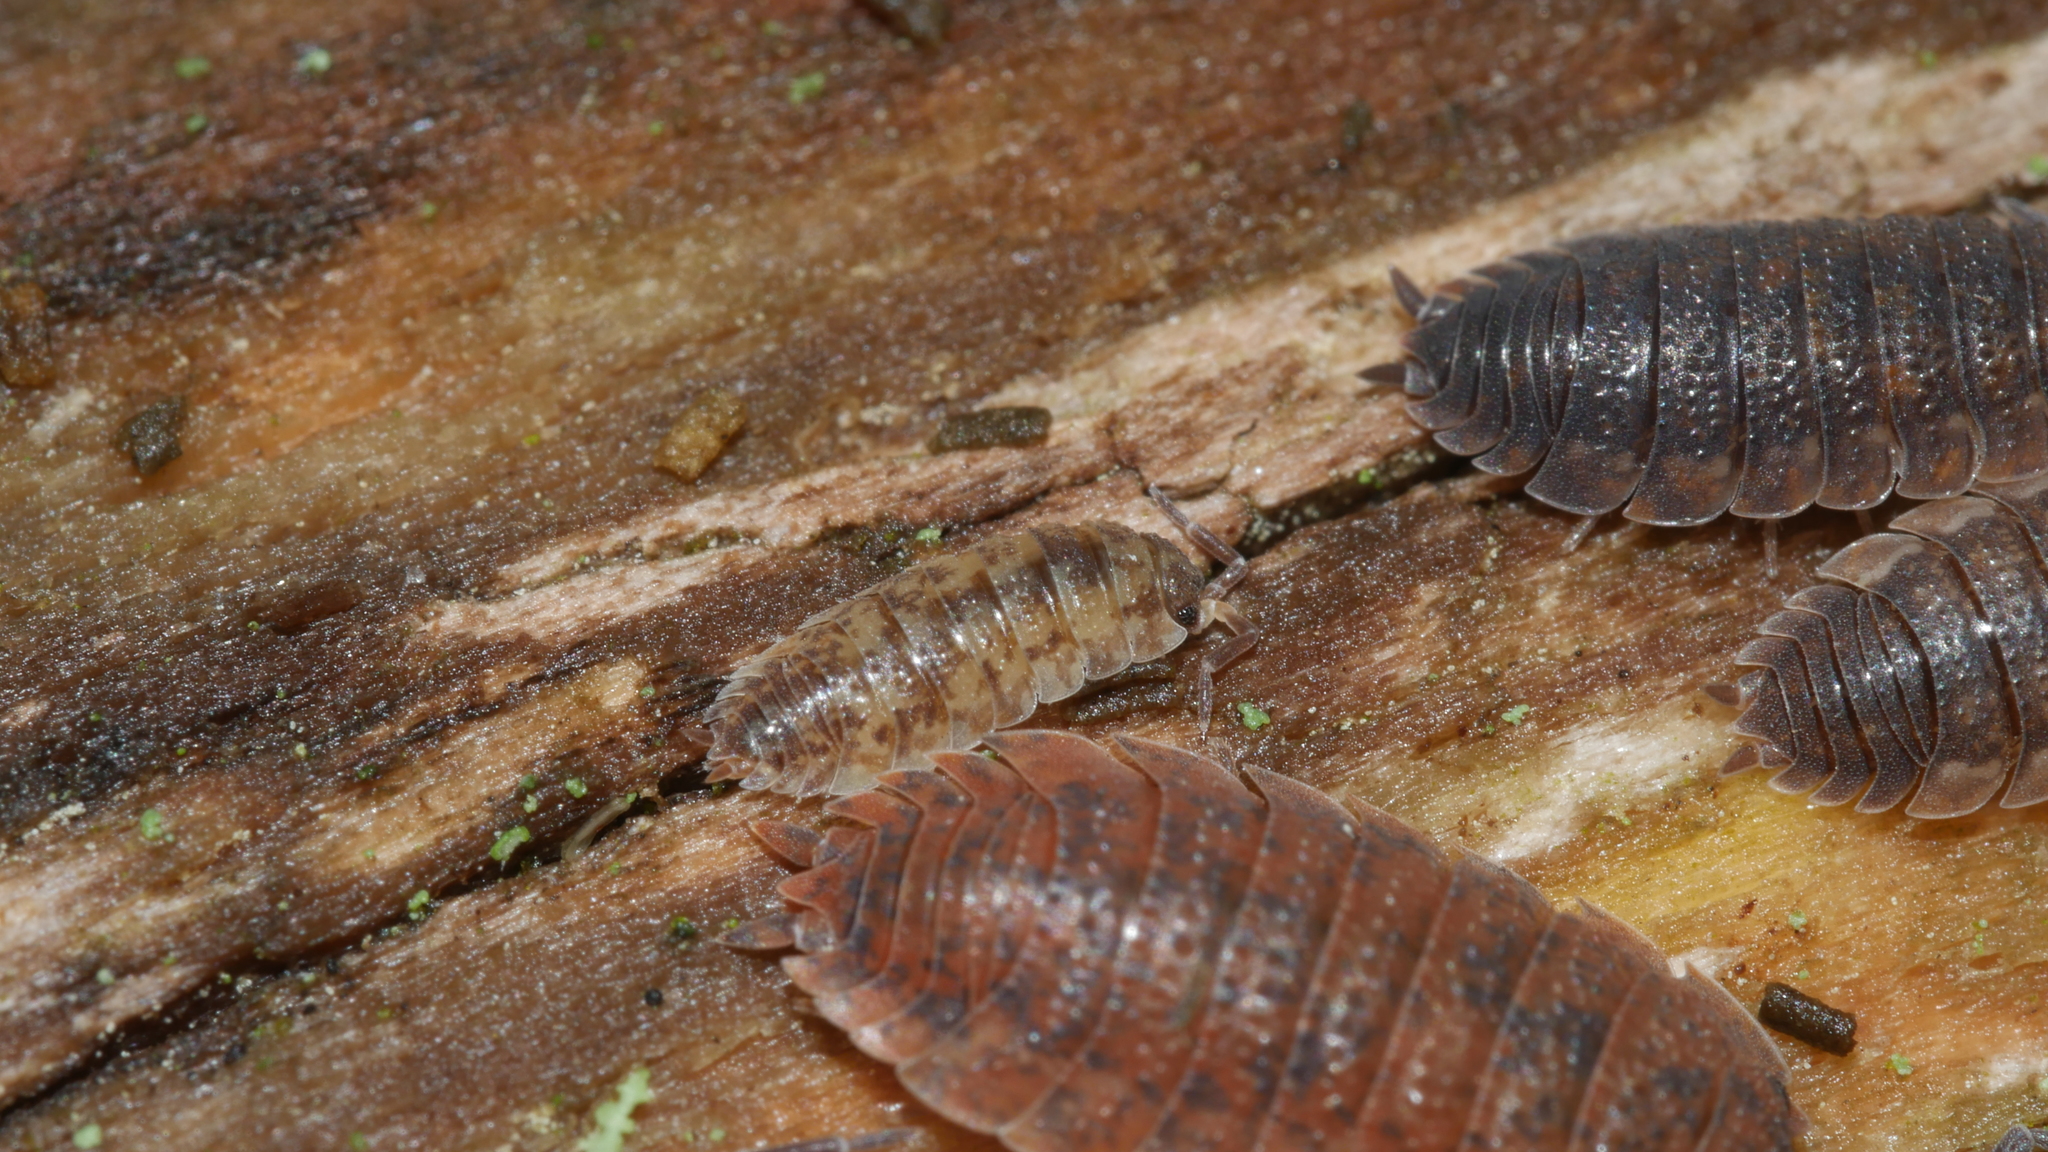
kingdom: Animalia
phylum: Arthropoda
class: Malacostraca
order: Isopoda
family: Porcellionidae
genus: Porcellio
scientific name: Porcellio scaber
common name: Common rough woodlouse
